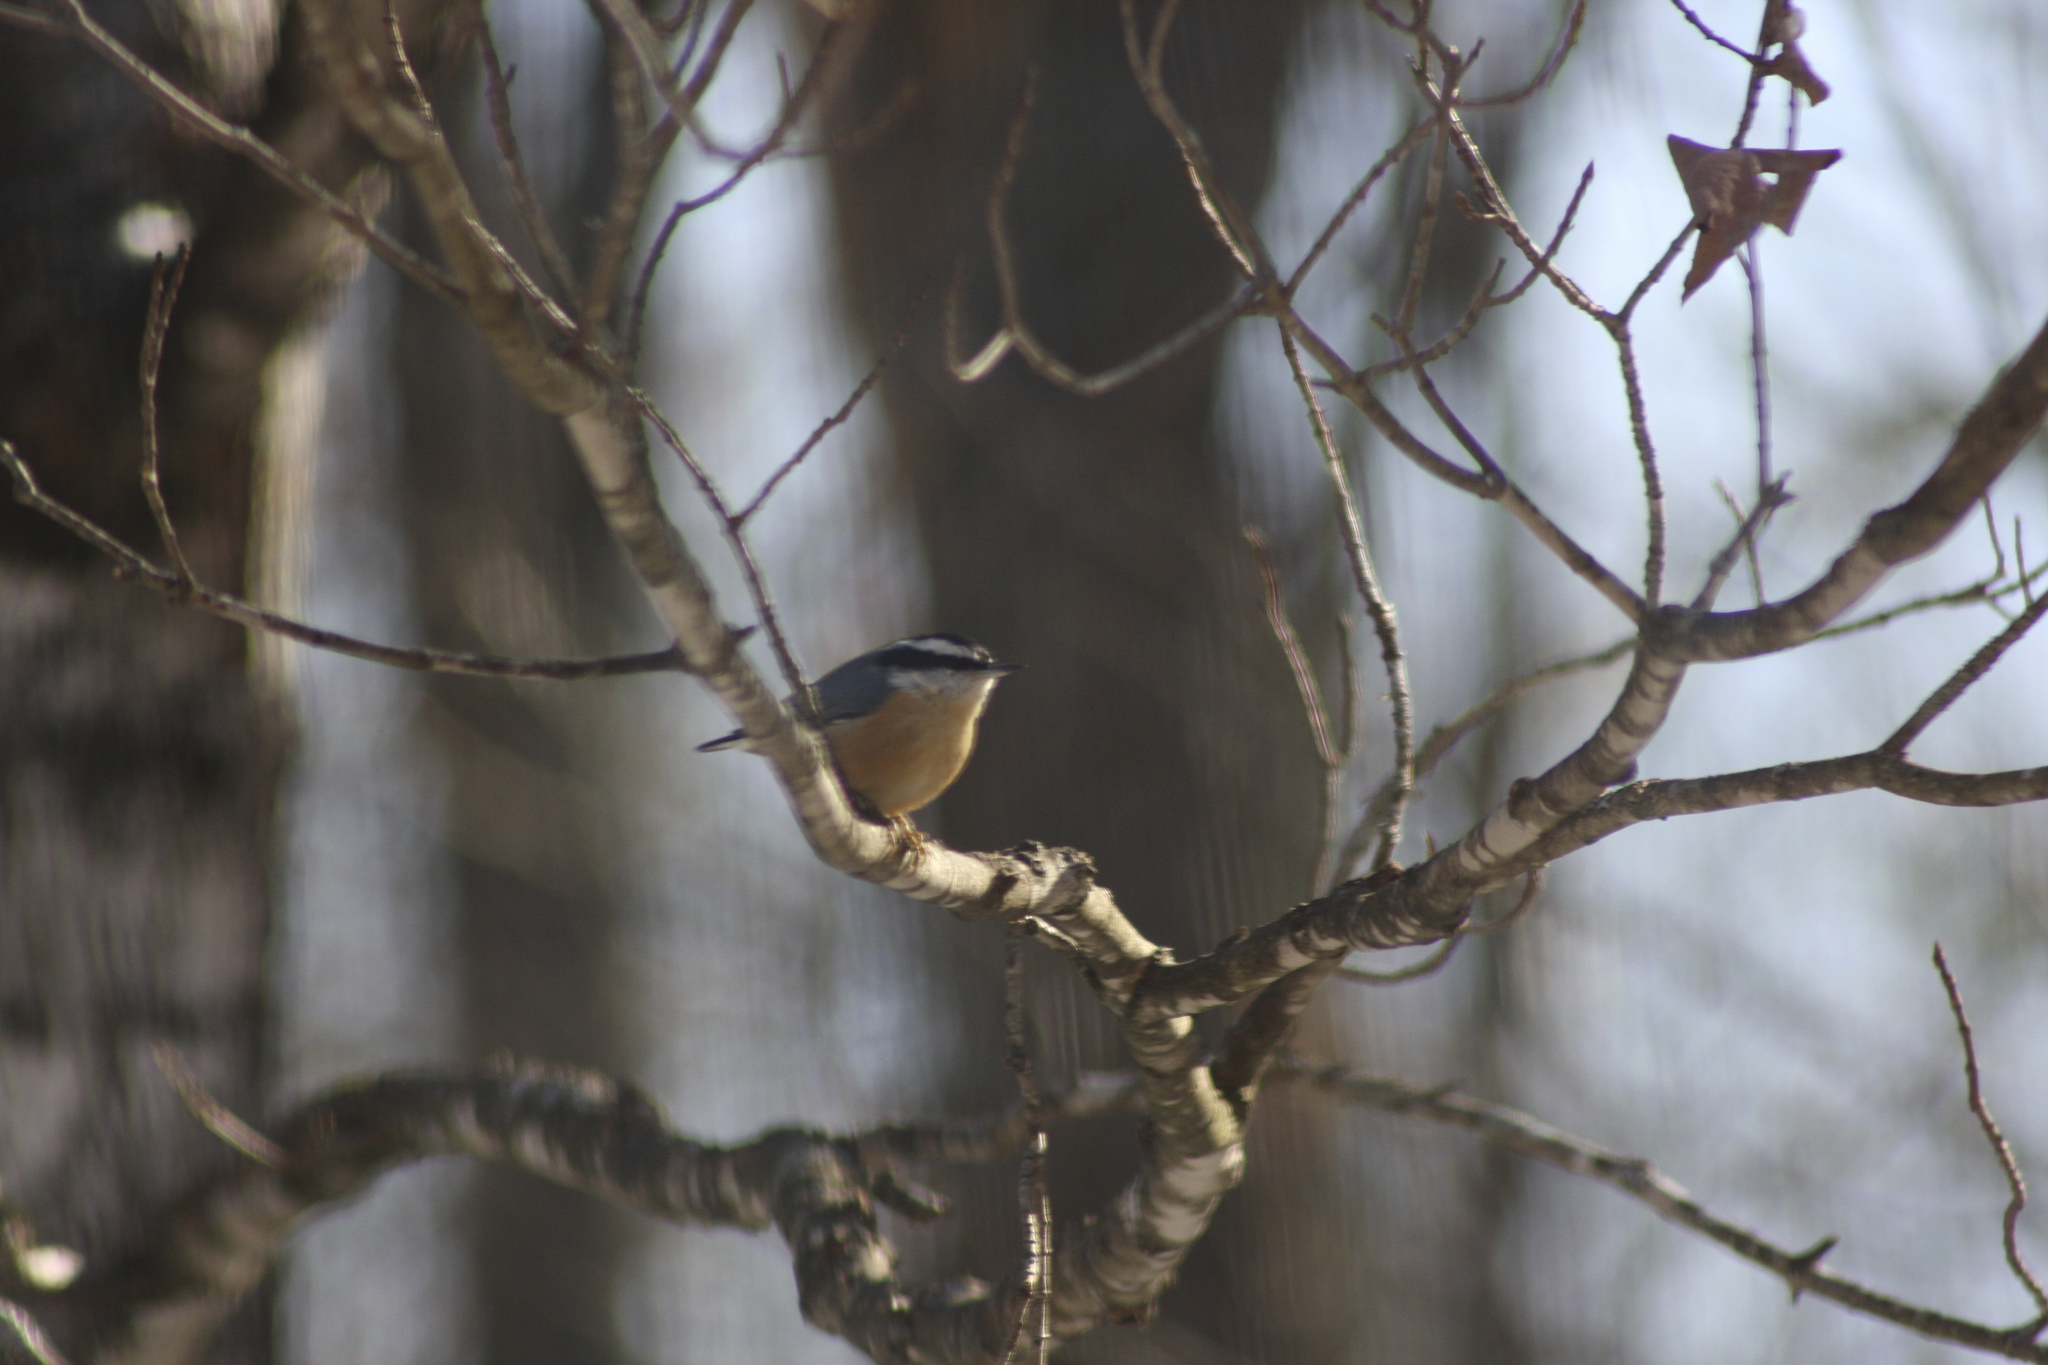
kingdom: Animalia
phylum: Chordata
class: Aves
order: Passeriformes
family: Sittidae
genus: Sitta
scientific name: Sitta canadensis
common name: Red-breasted nuthatch
